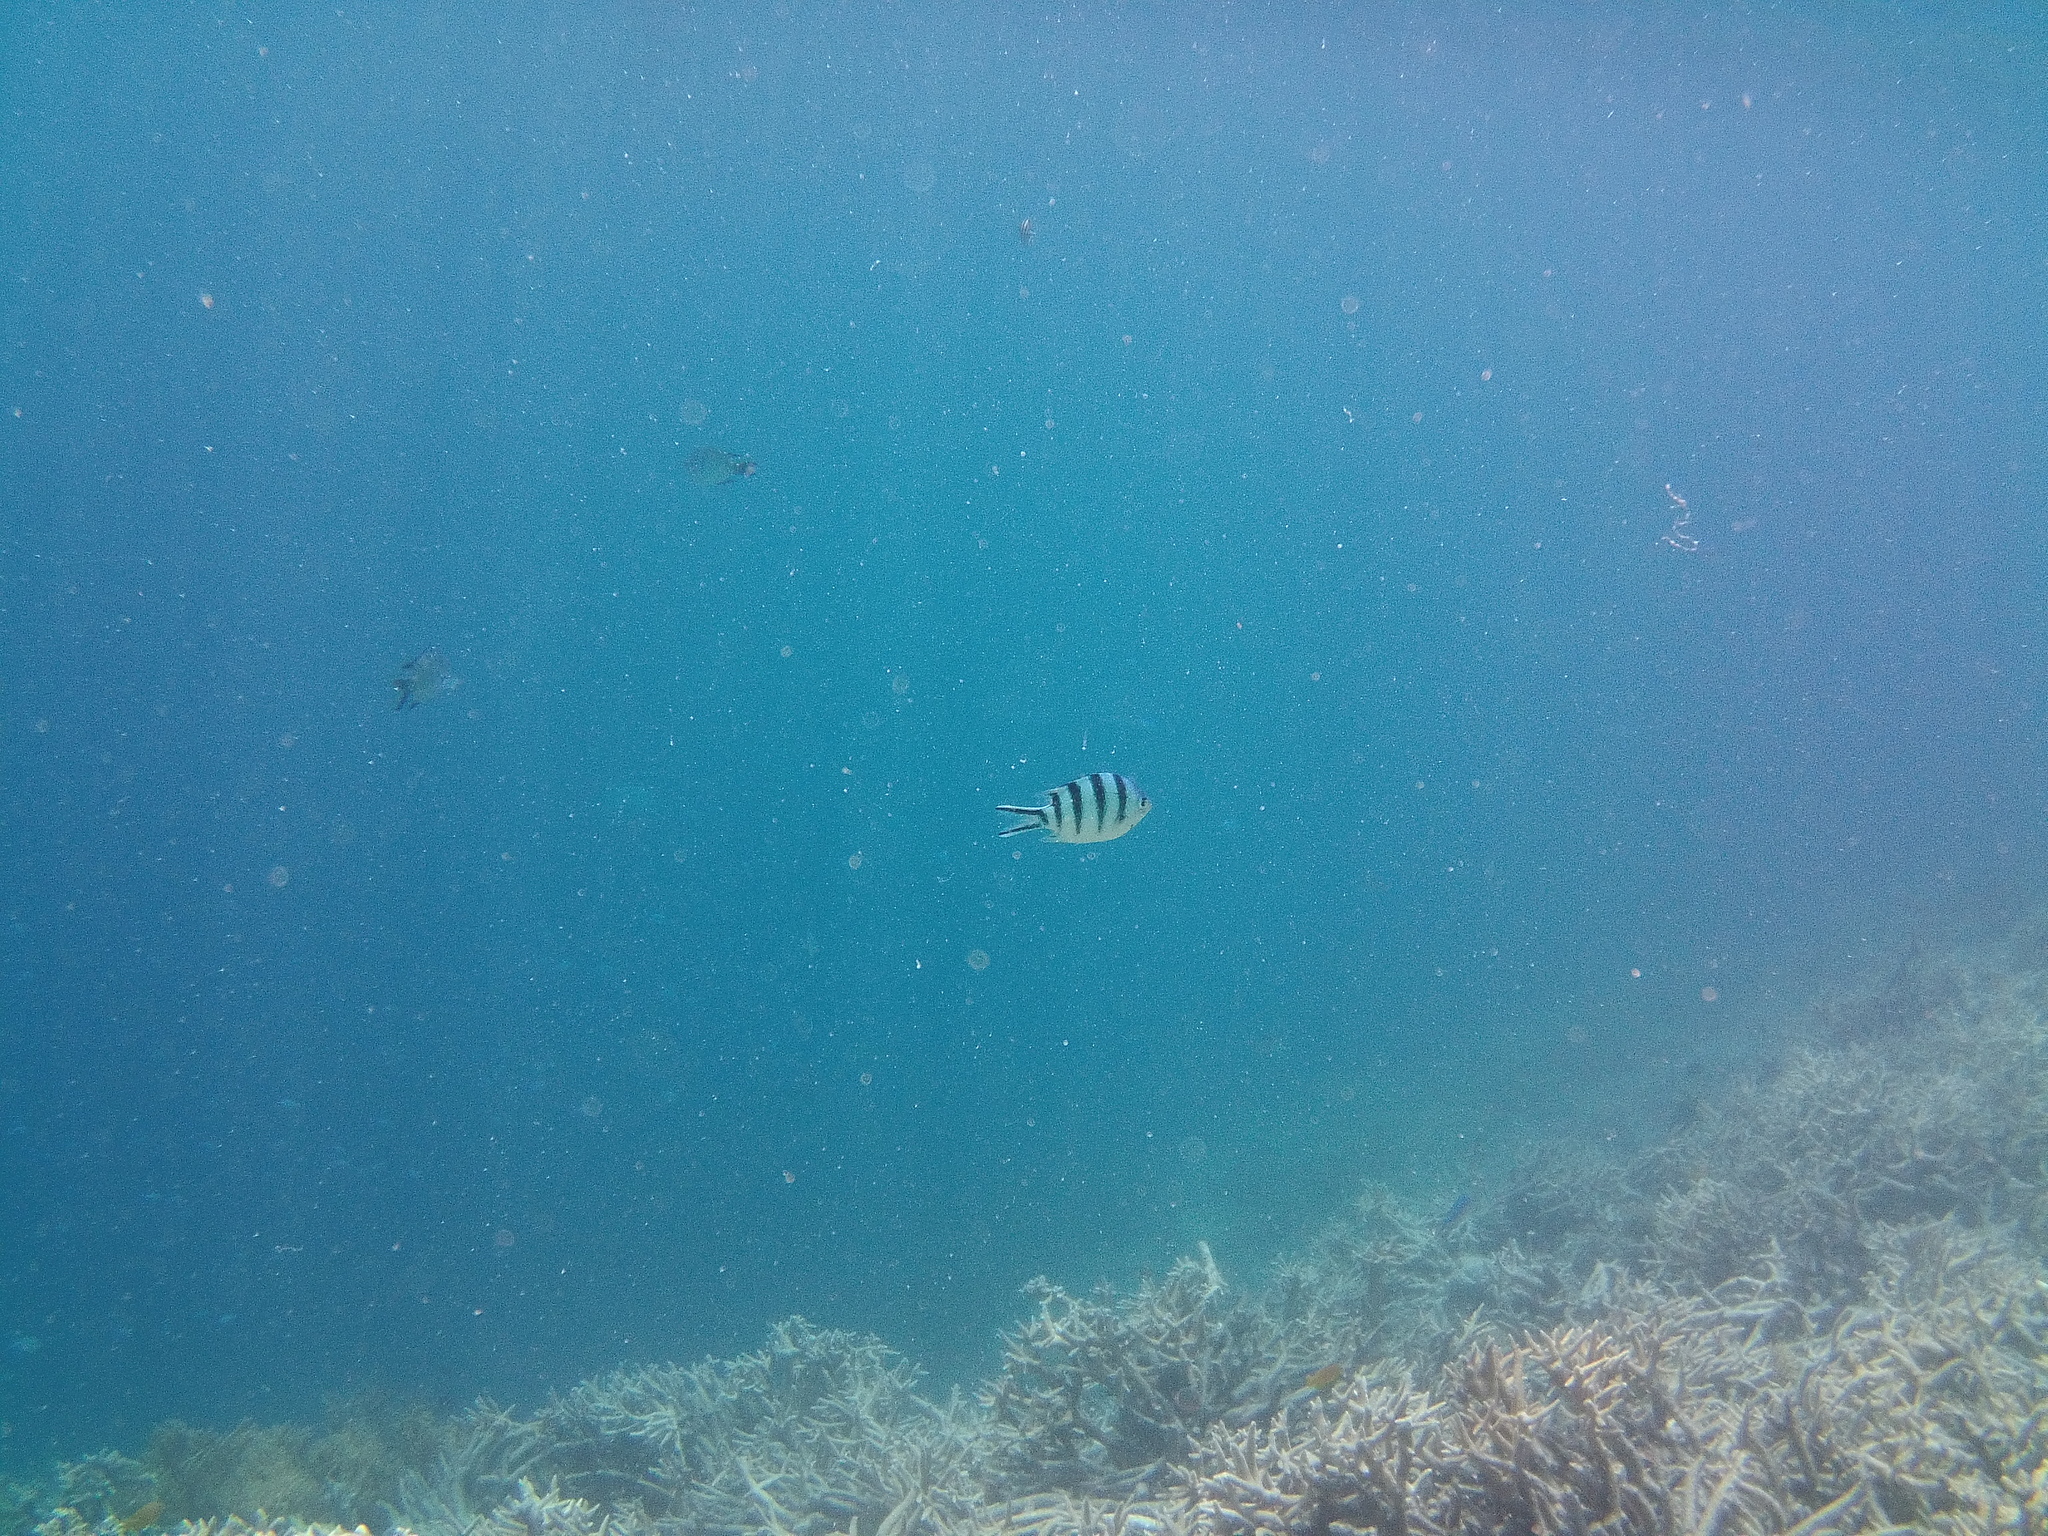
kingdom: Animalia
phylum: Chordata
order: Perciformes
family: Pomacentridae
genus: Abudefduf
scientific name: Abudefduf sexfasciatus
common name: Scissortail sergeant
